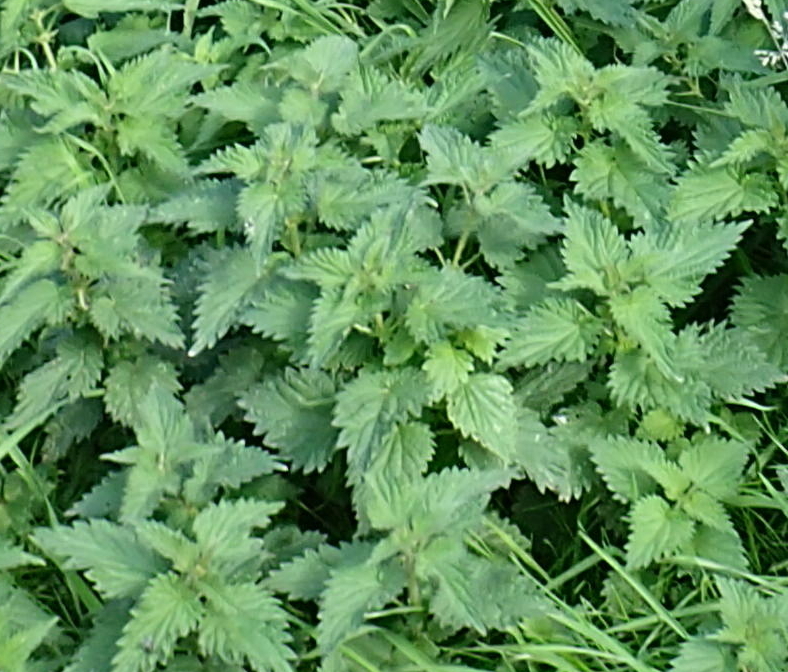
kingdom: Plantae
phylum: Tracheophyta
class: Magnoliopsida
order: Rosales
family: Urticaceae
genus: Urtica
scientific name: Urtica dioica
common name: Common nettle
